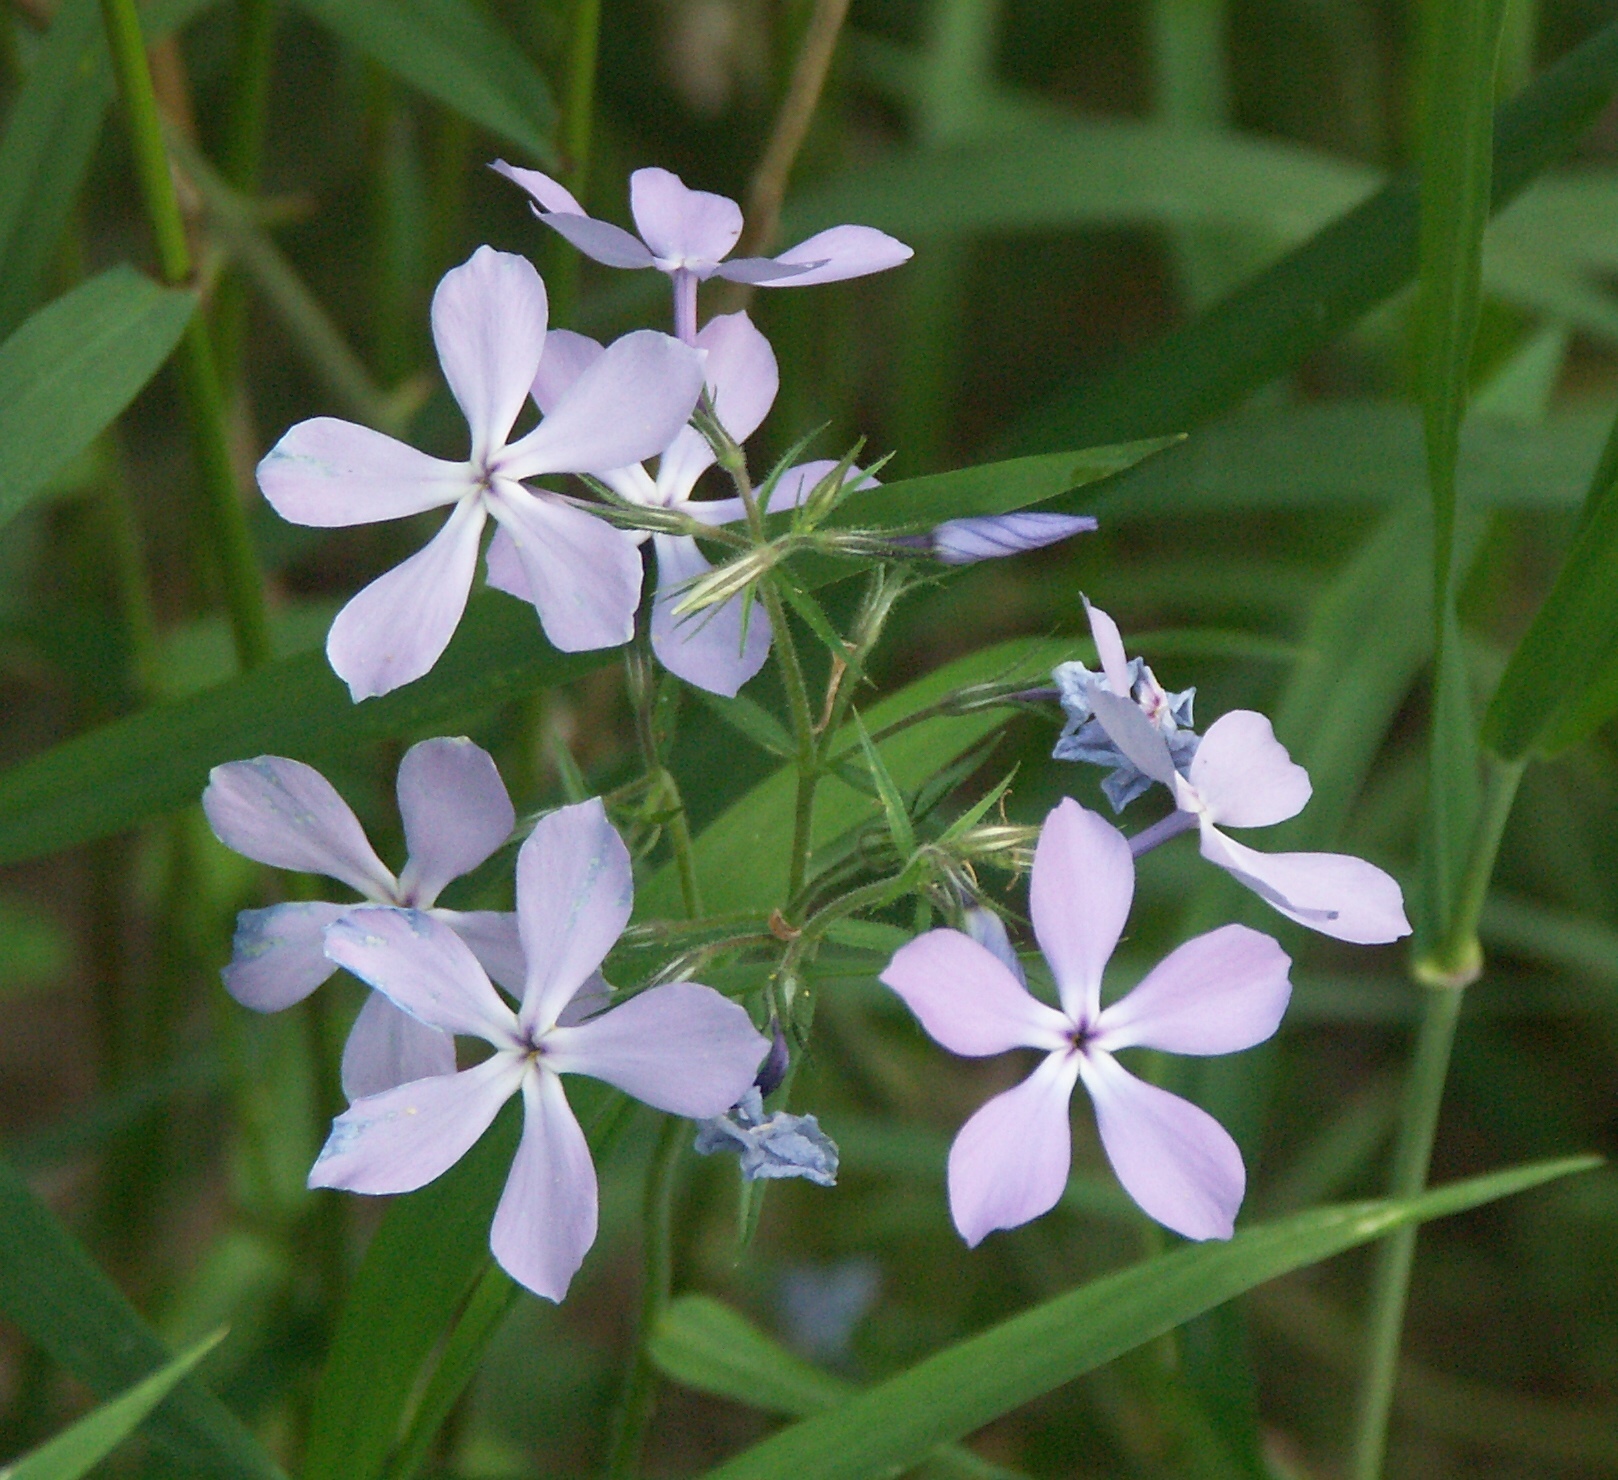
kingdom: Plantae
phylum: Tracheophyta
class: Magnoliopsida
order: Ericales
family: Polemoniaceae
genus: Phlox
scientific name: Phlox divaricata
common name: Blue phlox
